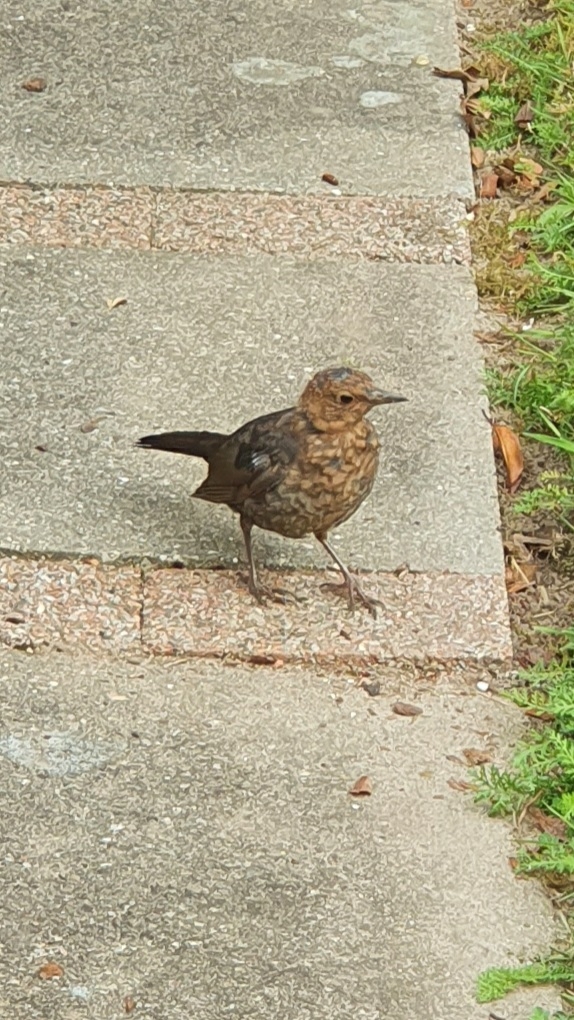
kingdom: Animalia
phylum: Chordata
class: Aves
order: Passeriformes
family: Turdidae
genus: Turdus
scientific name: Turdus merula
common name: Common blackbird
